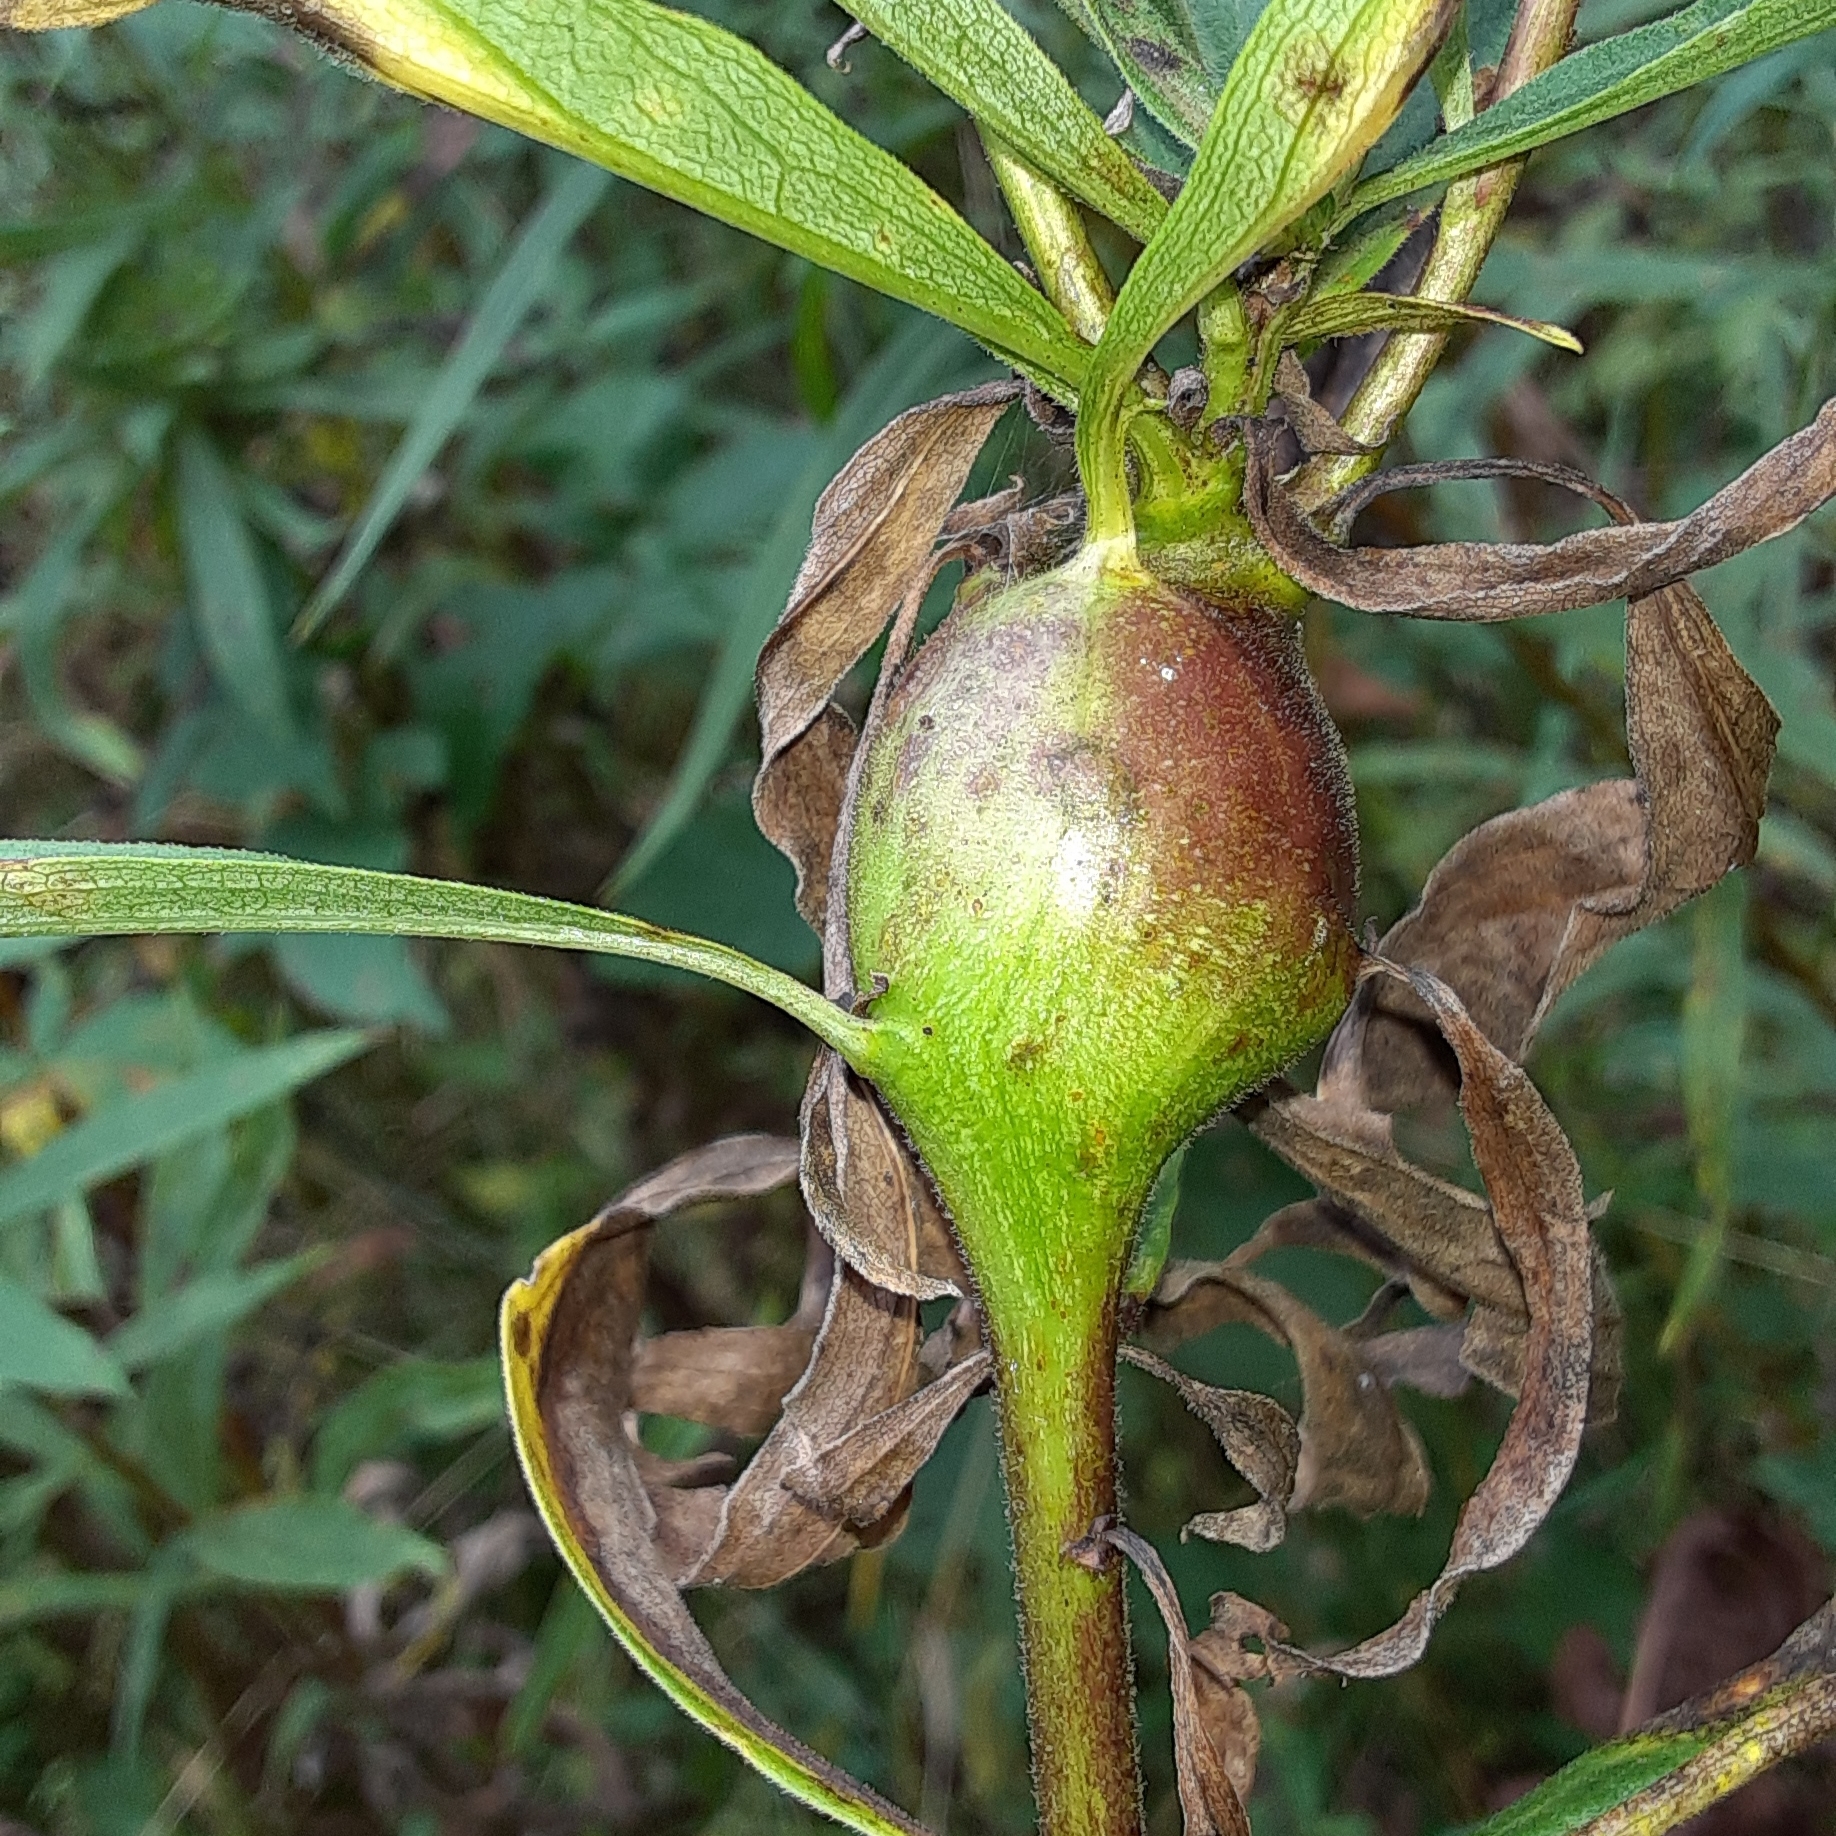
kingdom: Animalia
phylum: Arthropoda
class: Insecta
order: Diptera
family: Tephritidae
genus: Eurosta
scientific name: Eurosta solidaginis
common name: Goldenrod gall fly
